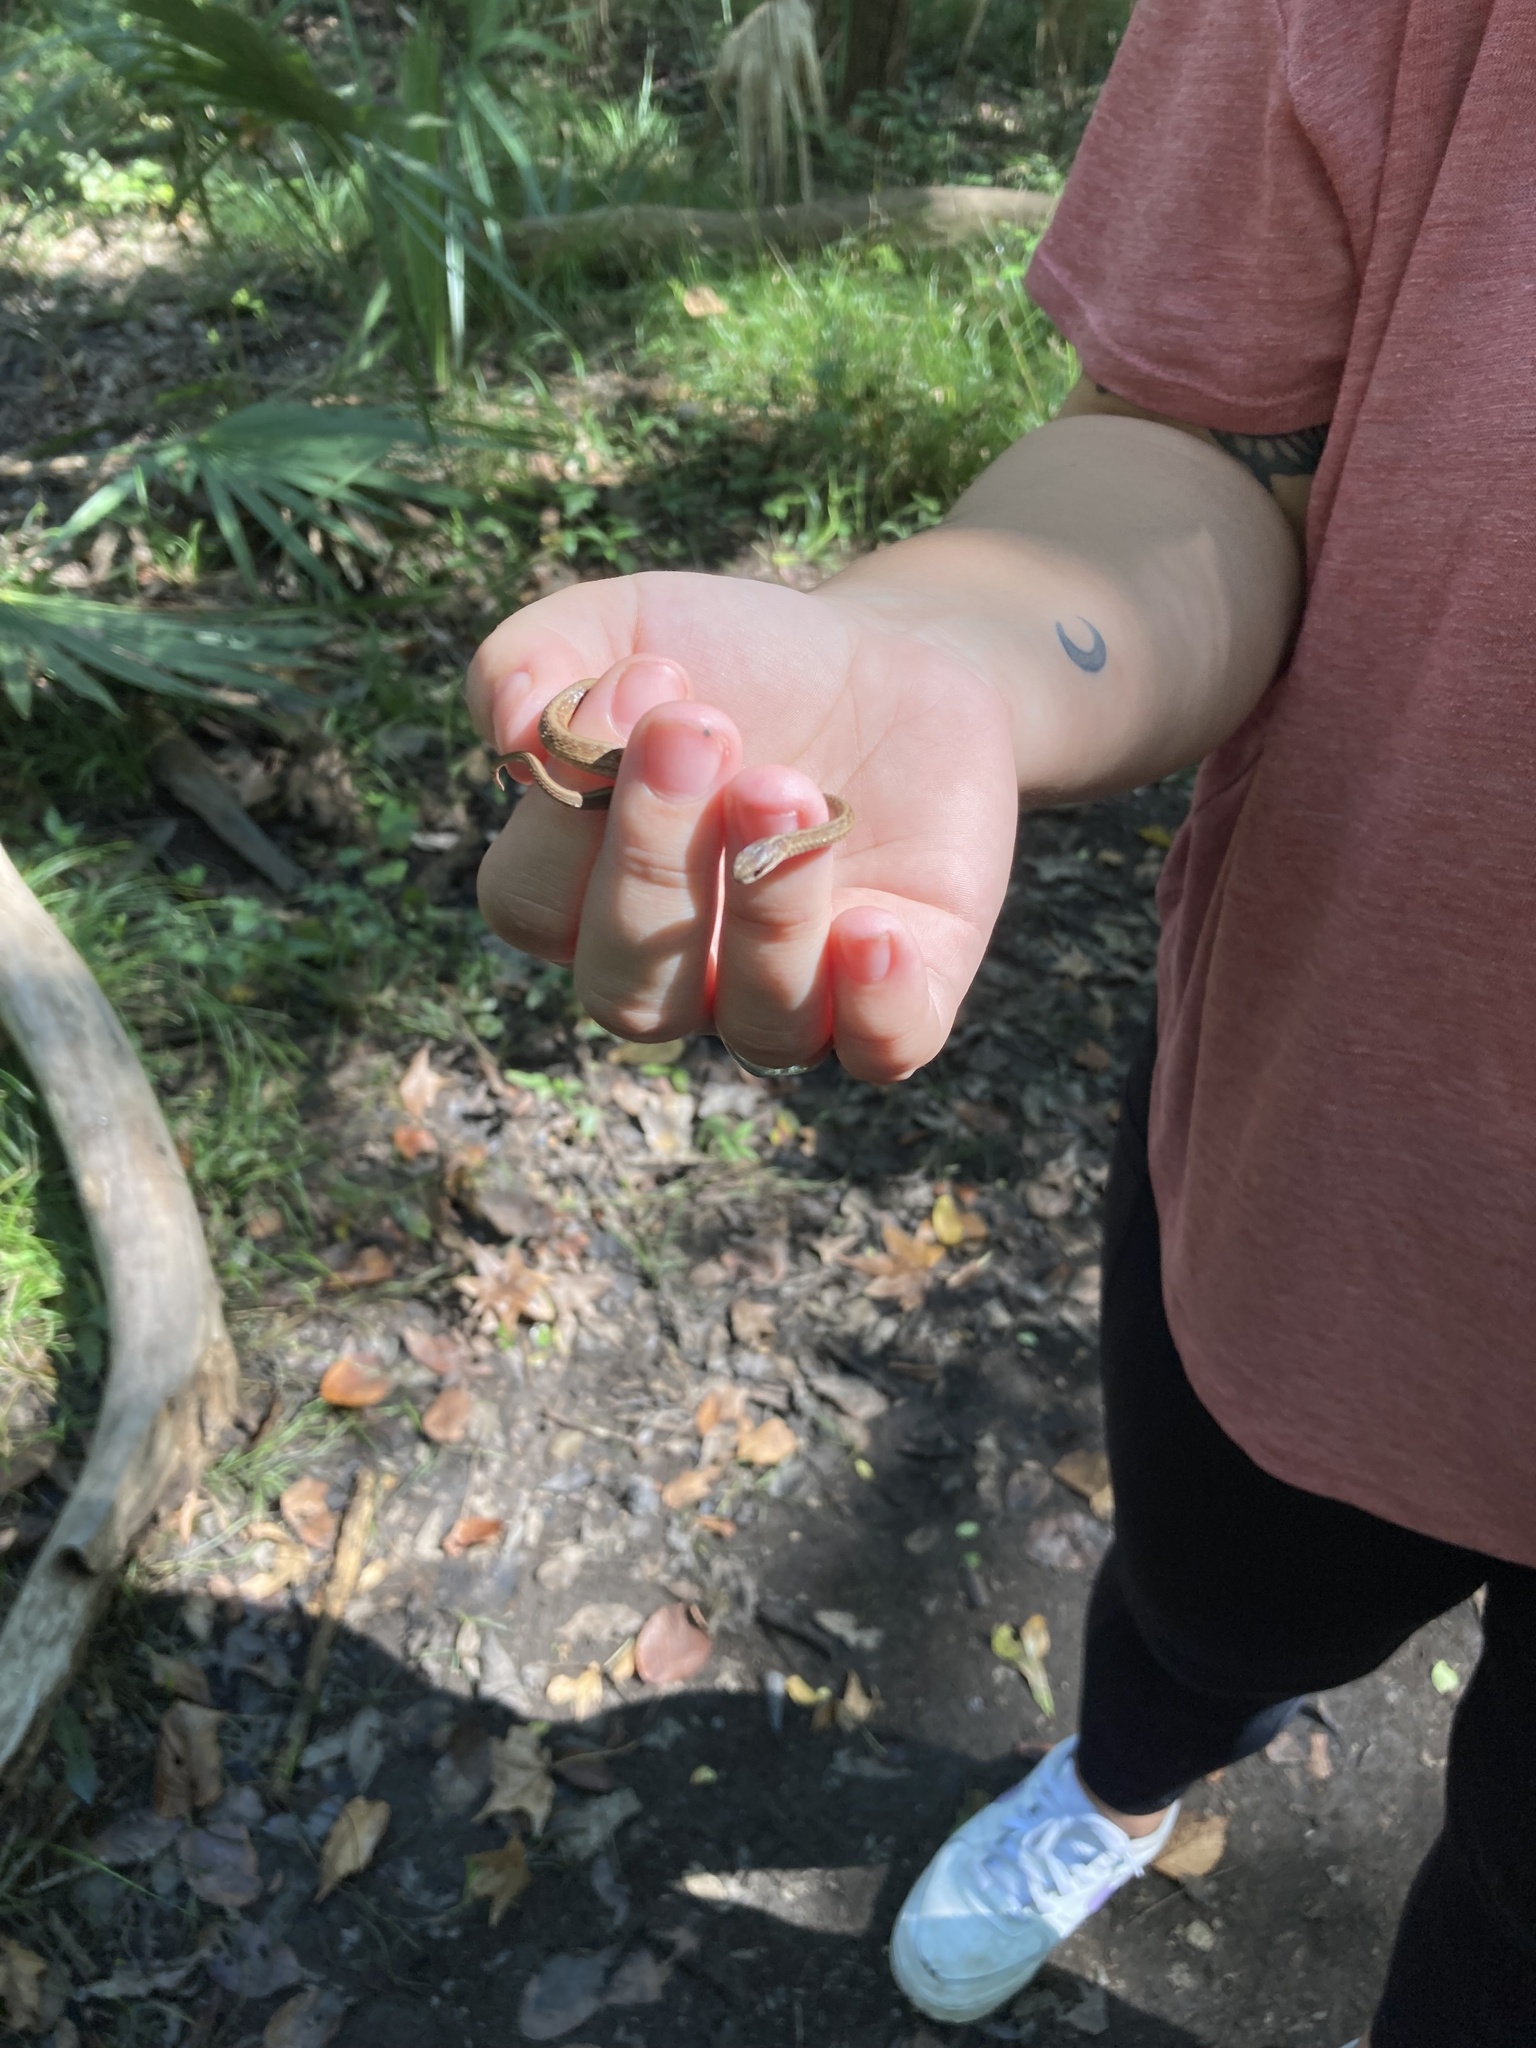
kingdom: Animalia
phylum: Chordata
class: Squamata
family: Colubridae
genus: Storeria
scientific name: Storeria dekayi
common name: (dekay’s) brown snake
